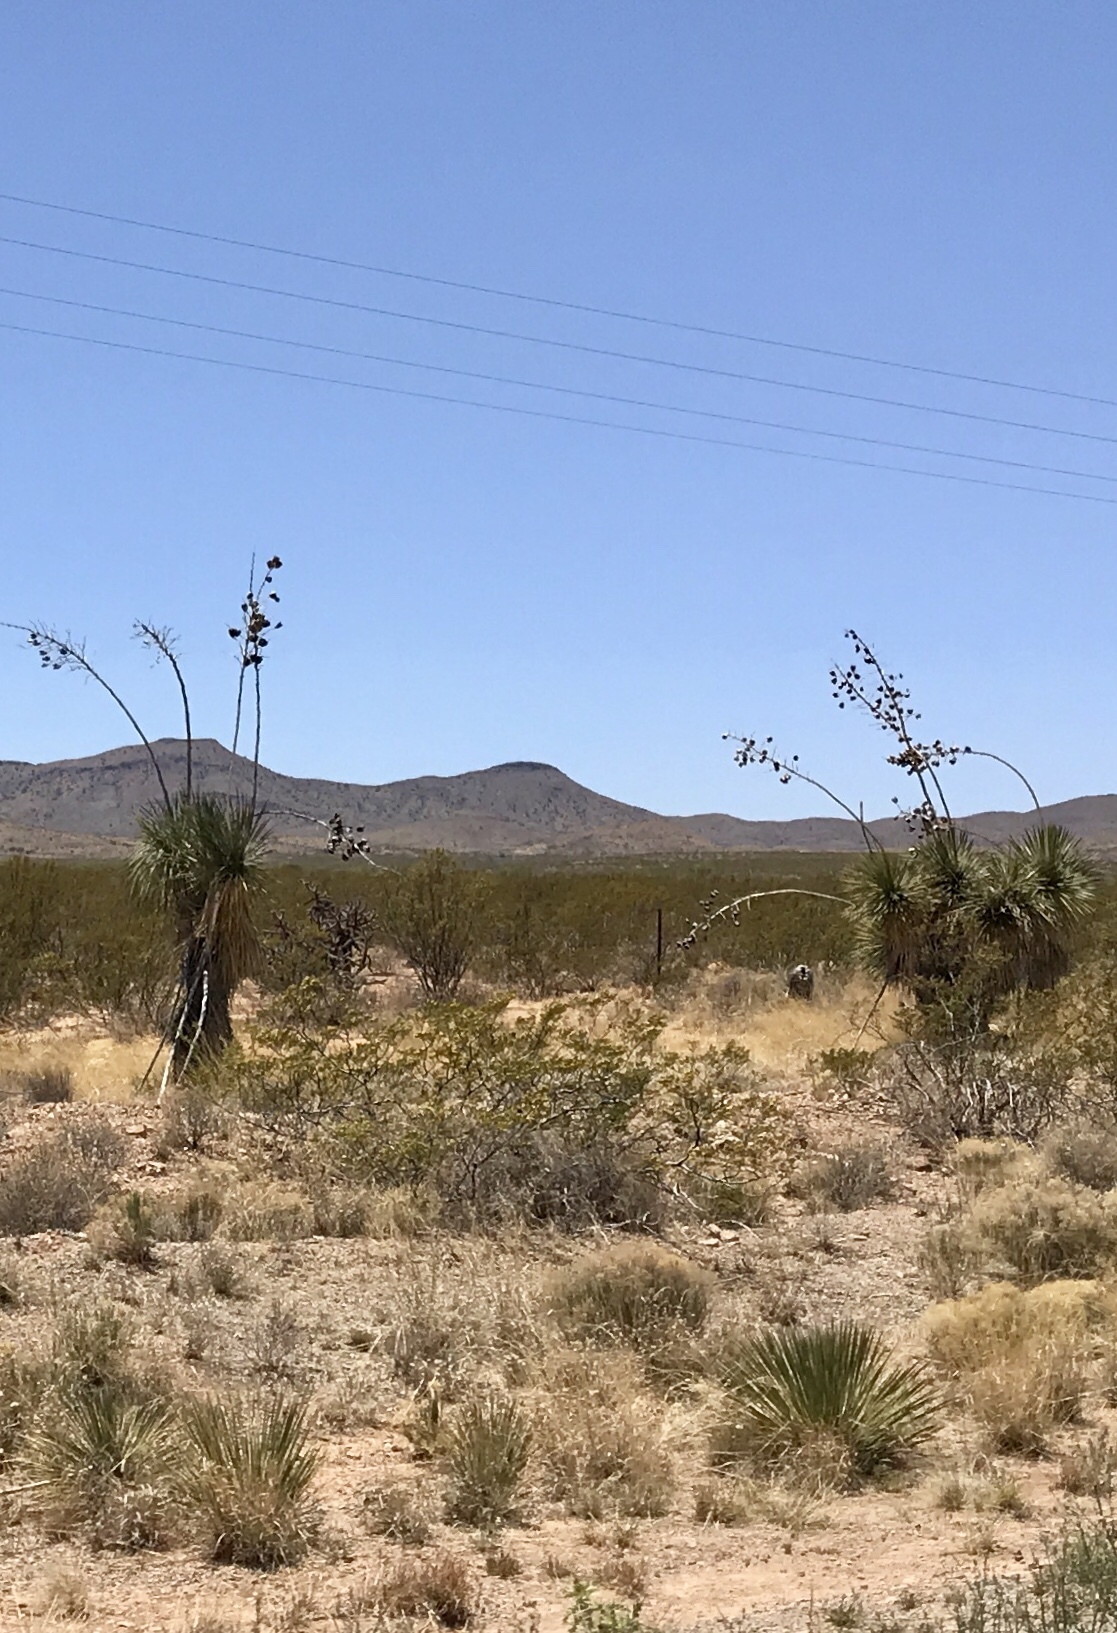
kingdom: Plantae
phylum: Tracheophyta
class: Liliopsida
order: Asparagales
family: Asparagaceae
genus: Yucca
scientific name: Yucca elata
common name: Palmella
